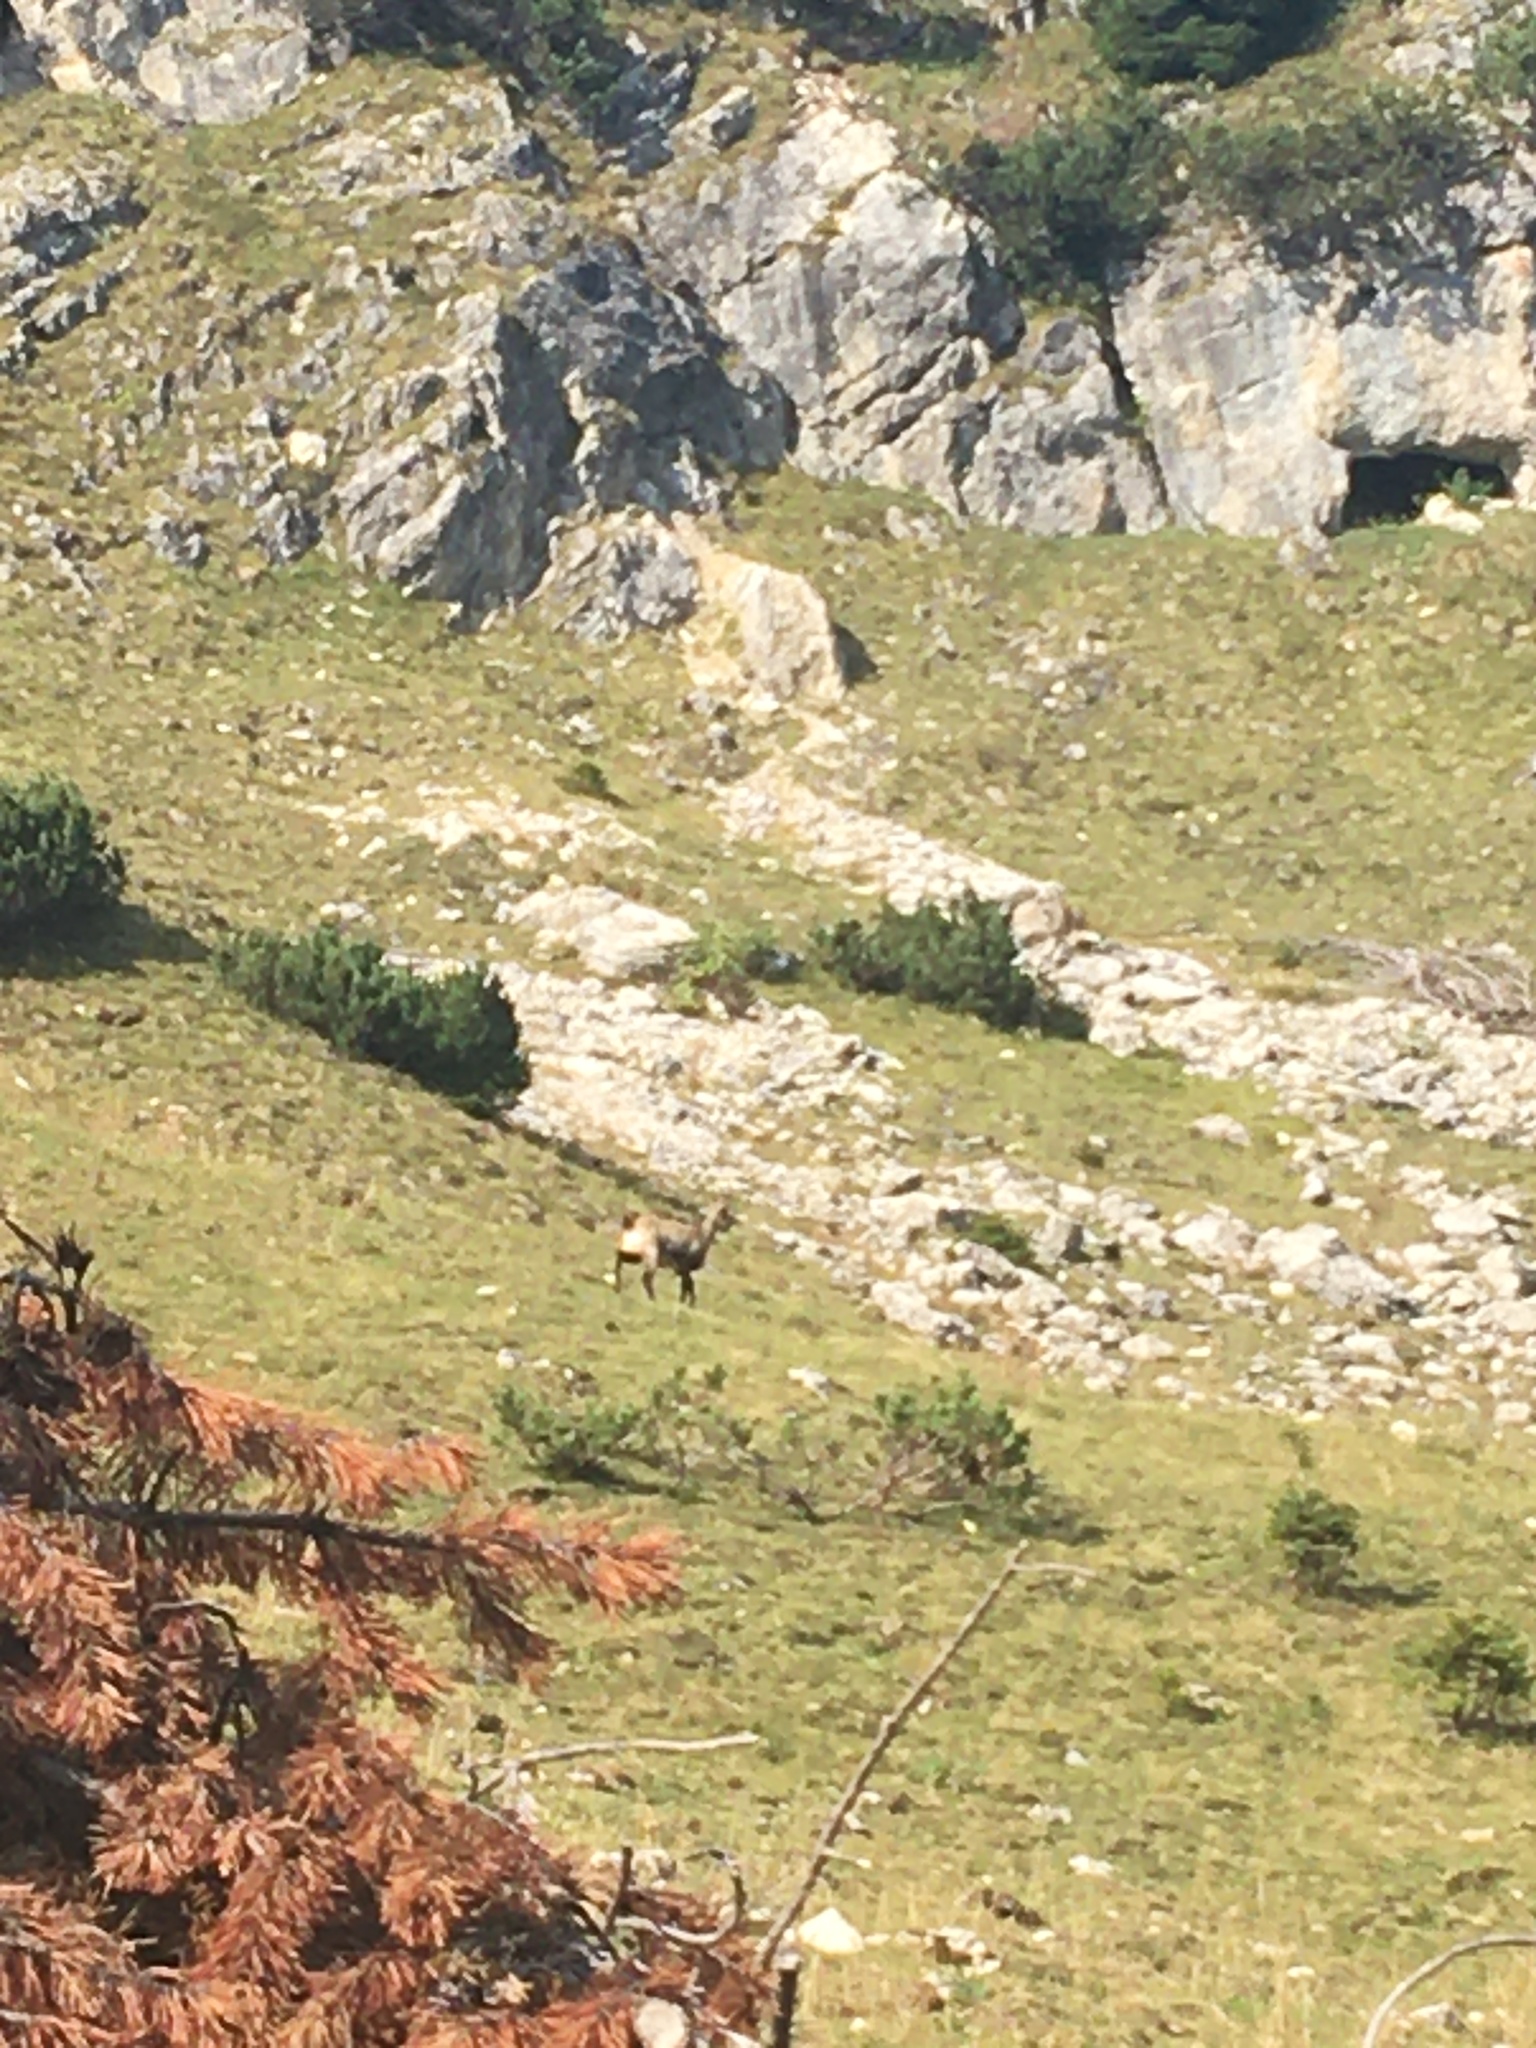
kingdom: Animalia
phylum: Chordata
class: Mammalia
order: Artiodactyla
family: Bovidae
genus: Rupicapra
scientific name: Rupicapra rupicapra
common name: Chamois
